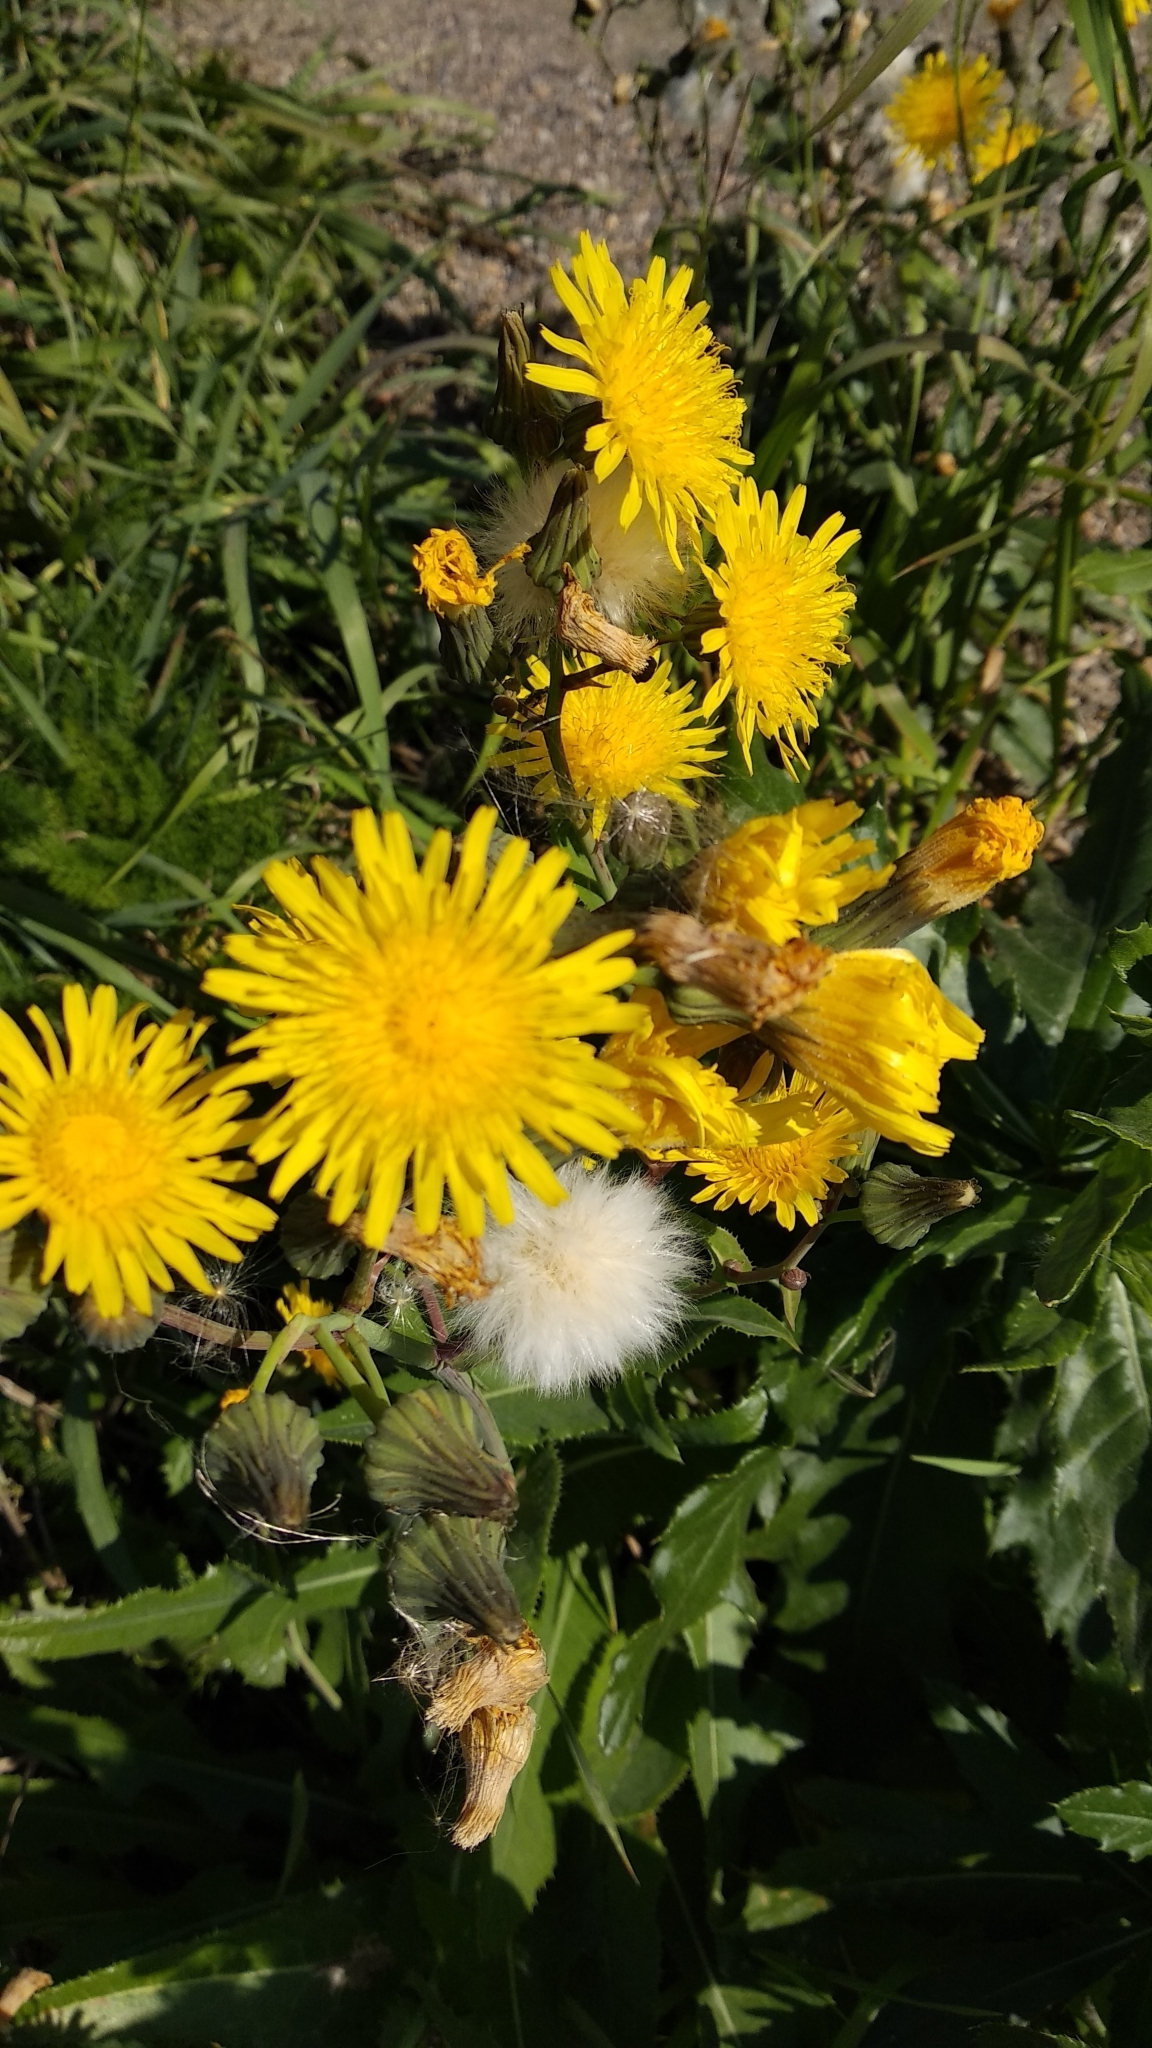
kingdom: Plantae
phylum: Tracheophyta
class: Magnoliopsida
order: Asterales
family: Asteraceae
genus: Sonchus
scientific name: Sonchus arvensis
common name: Perennial sow-thistle
